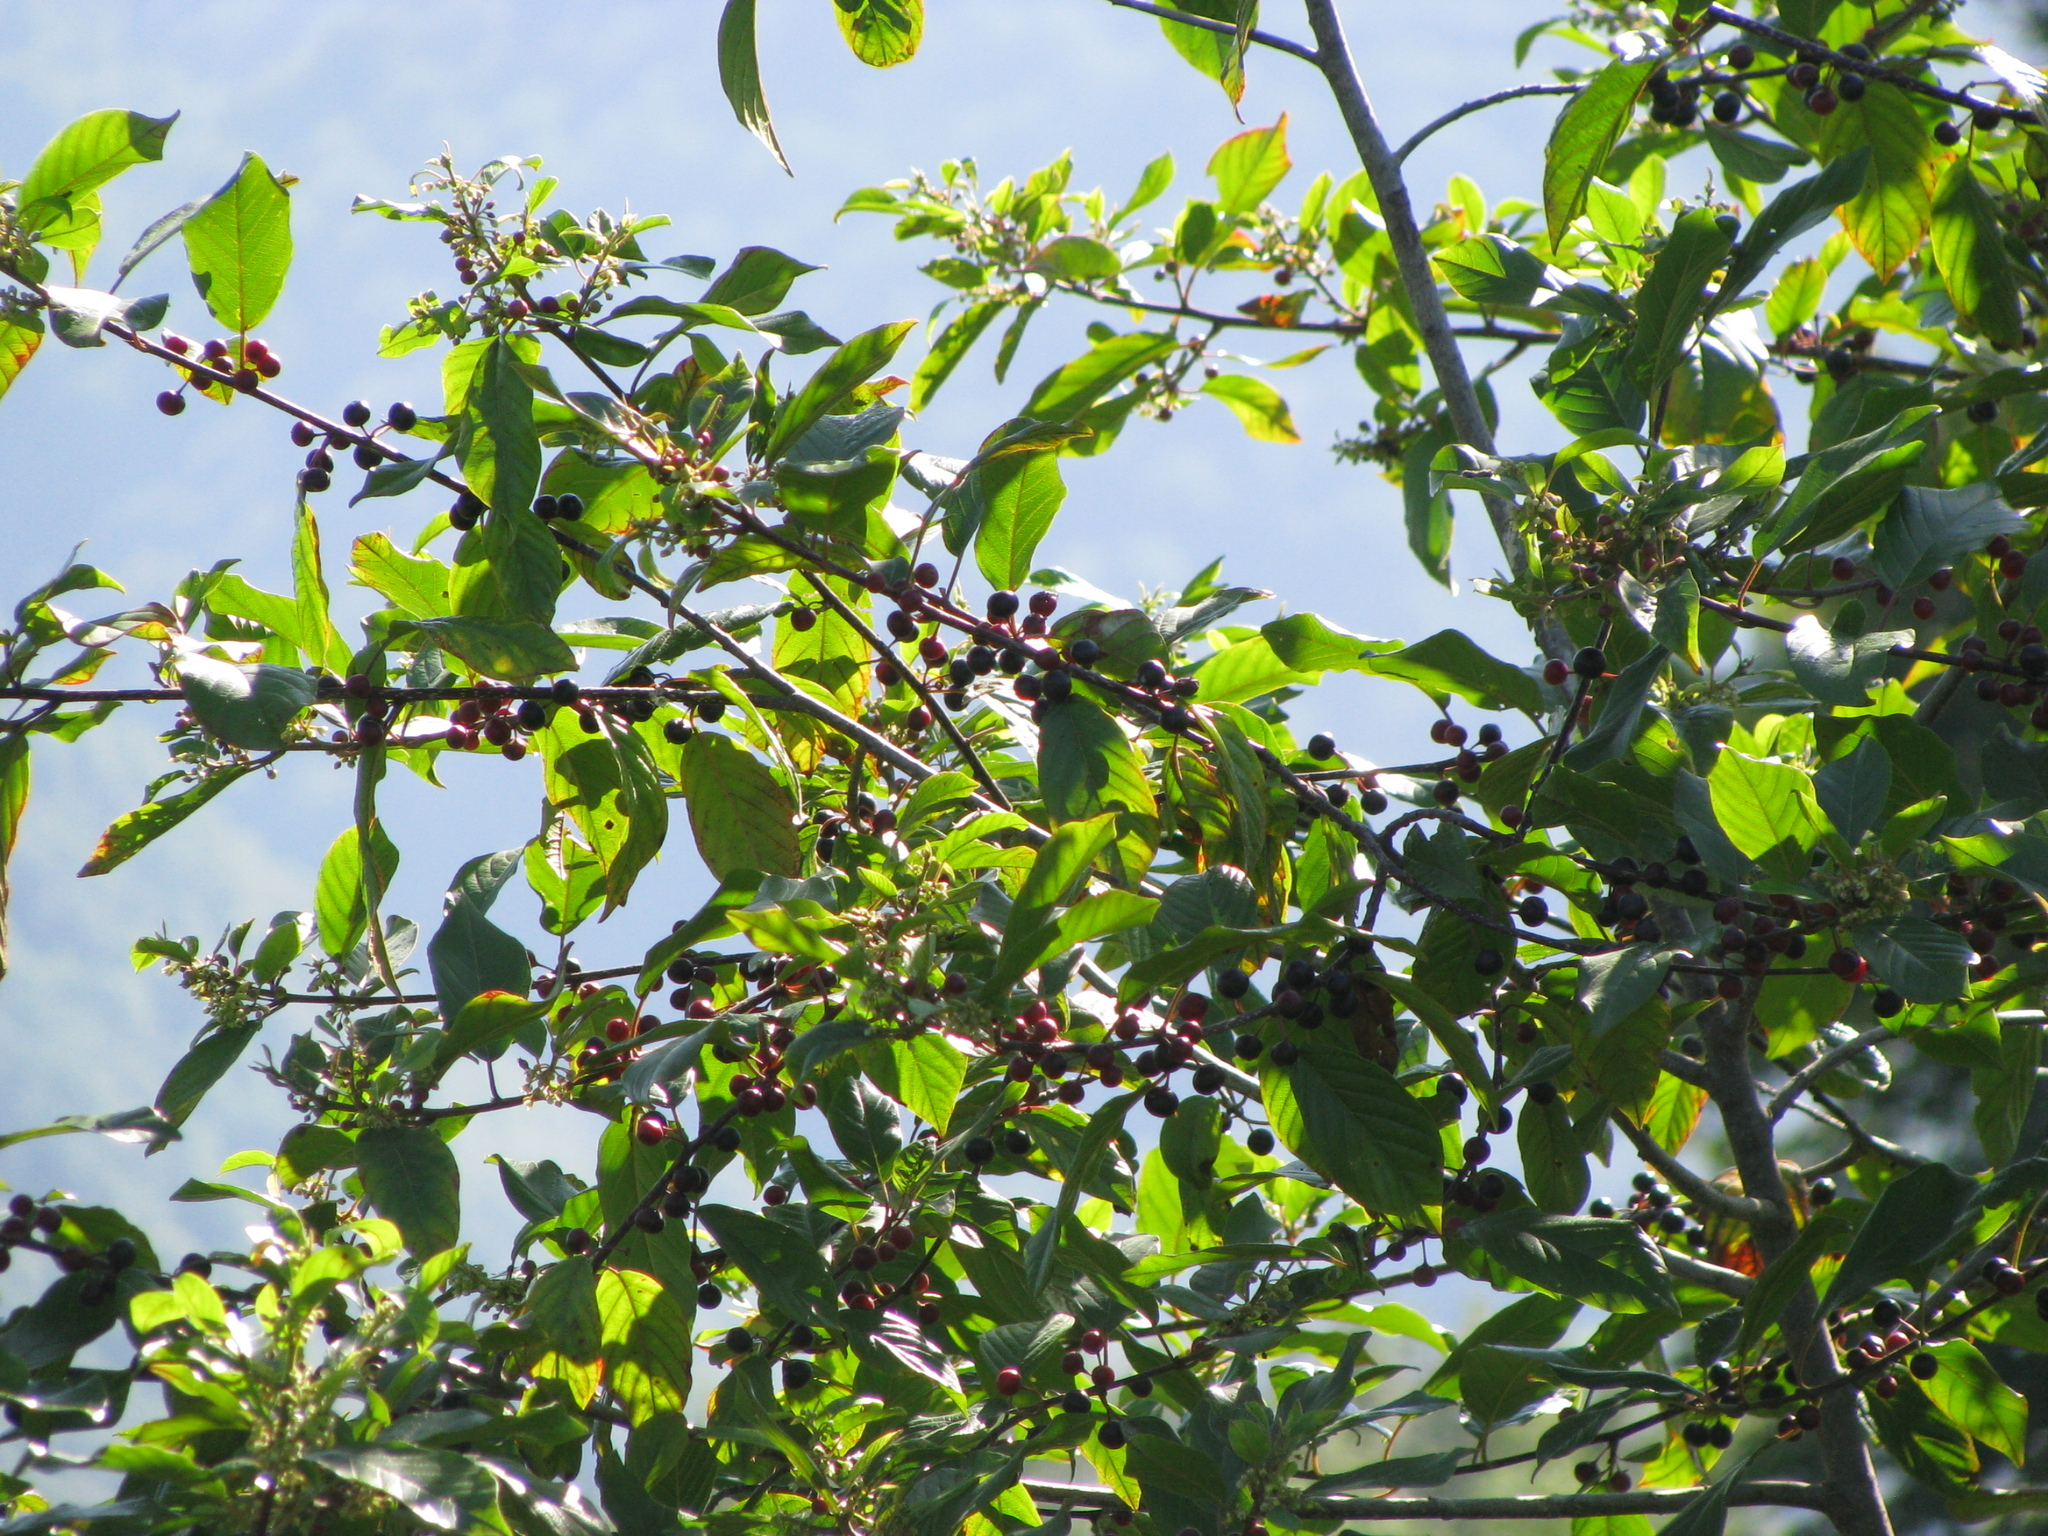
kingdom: Plantae
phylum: Tracheophyta
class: Magnoliopsida
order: Rosales
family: Rhamnaceae
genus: Frangula
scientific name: Frangula alnus
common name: Alder buckthorn
